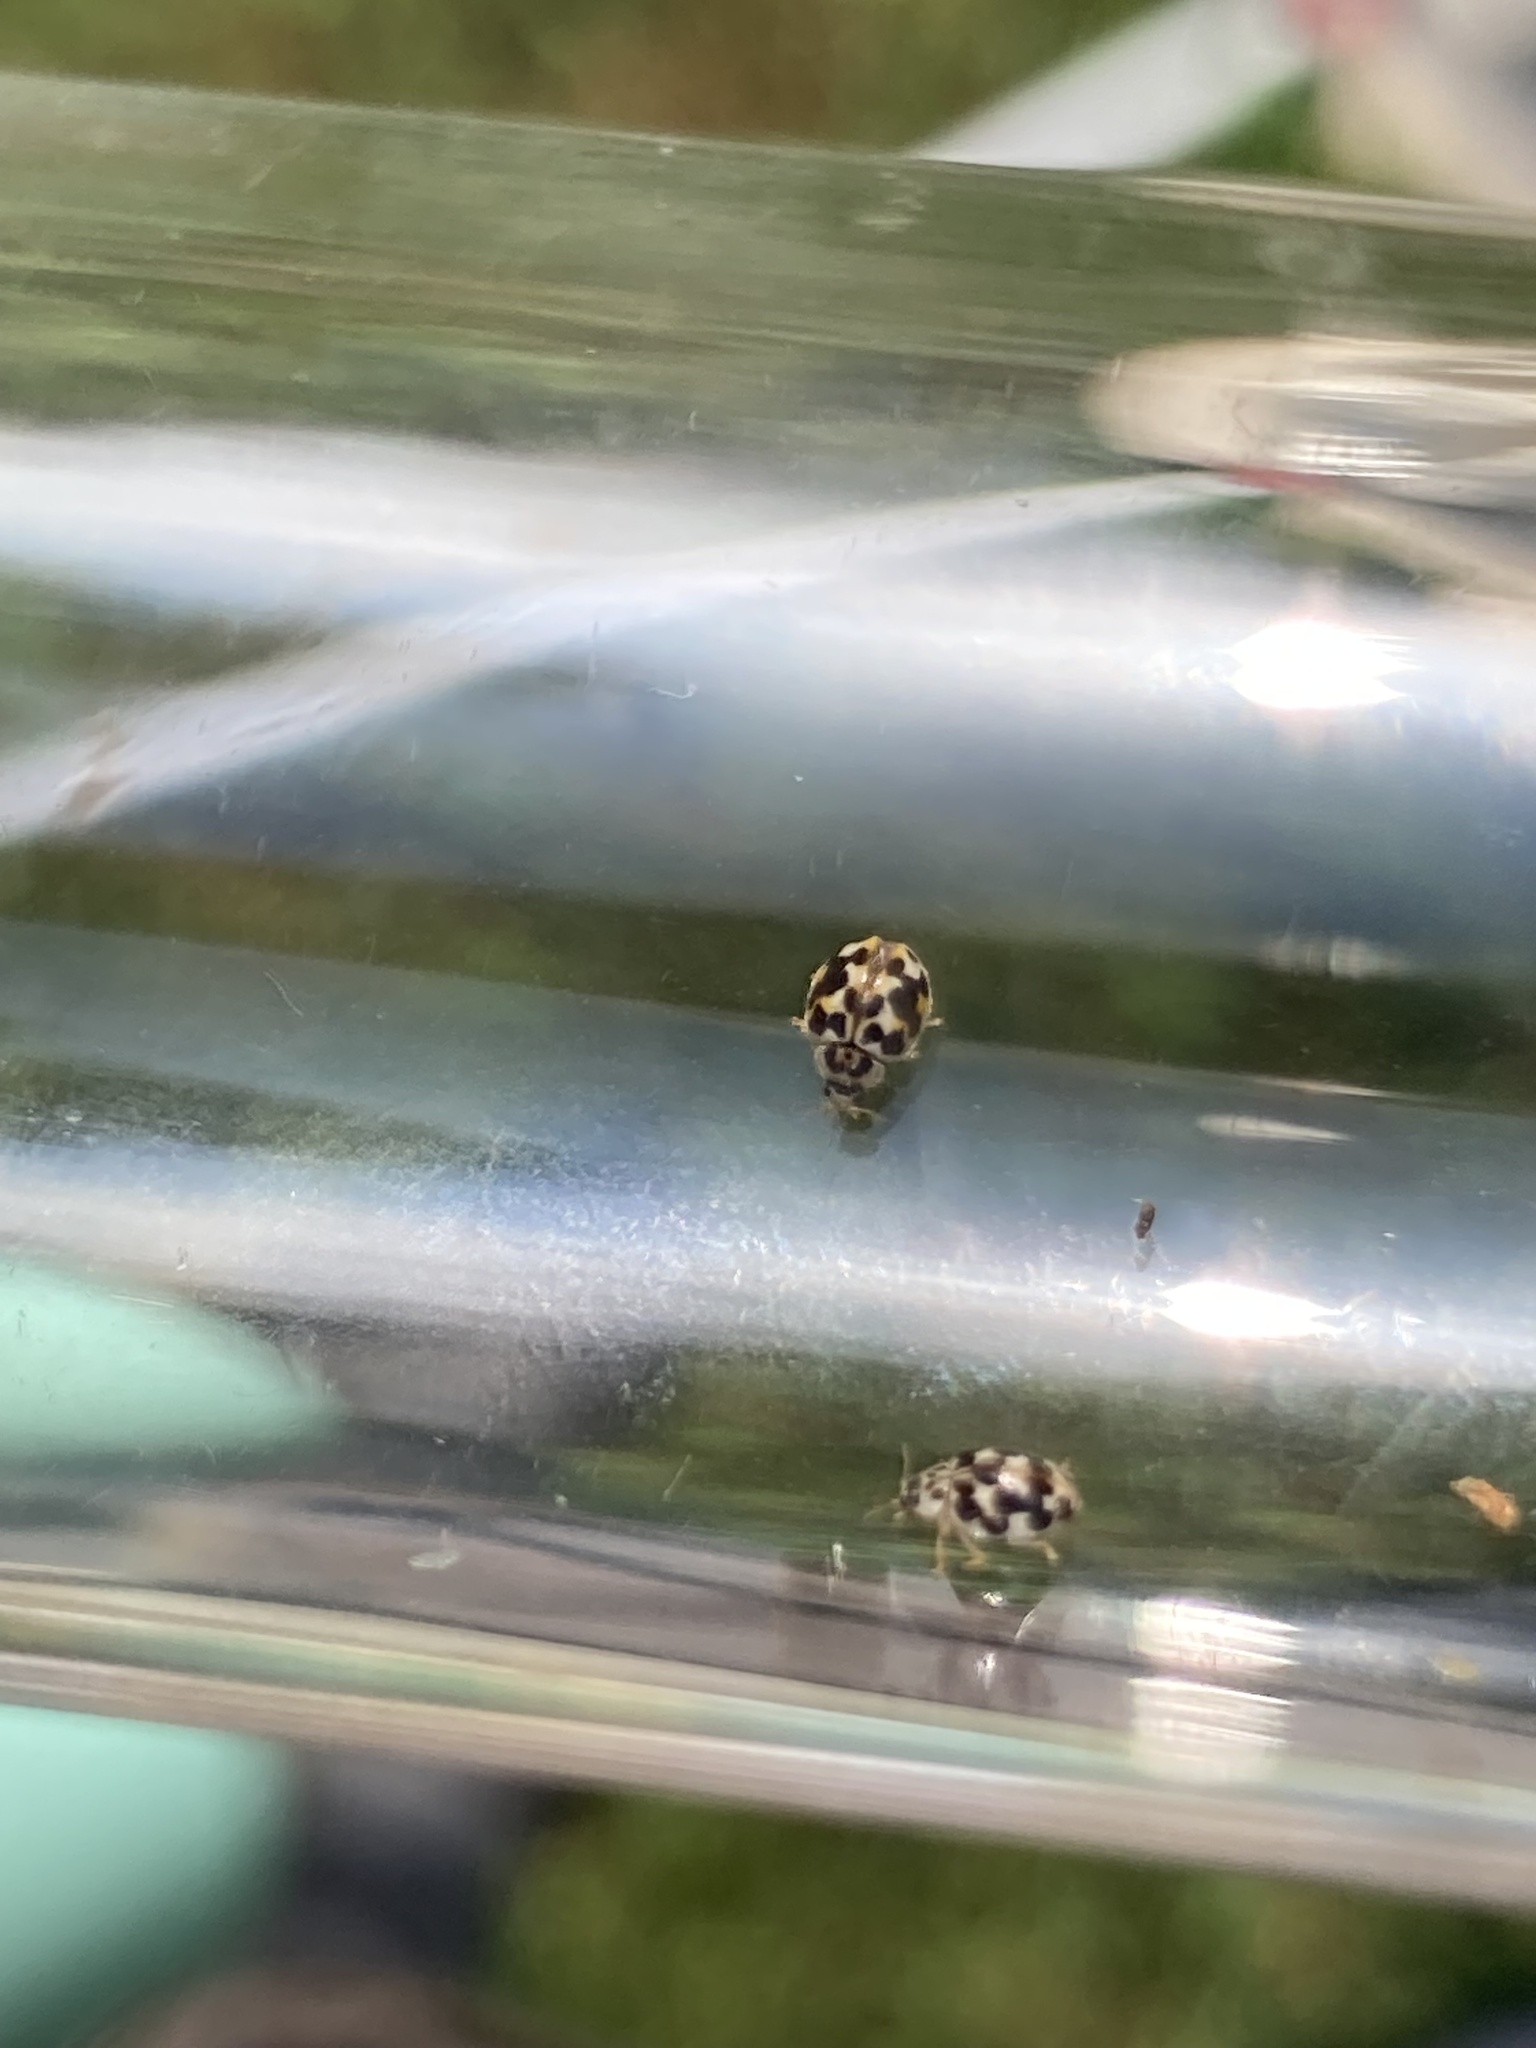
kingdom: Animalia
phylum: Arthropoda
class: Insecta
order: Coleoptera
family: Coccinellidae
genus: Psyllobora
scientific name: Psyllobora vigintimaculata
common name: Ladybird beetle
